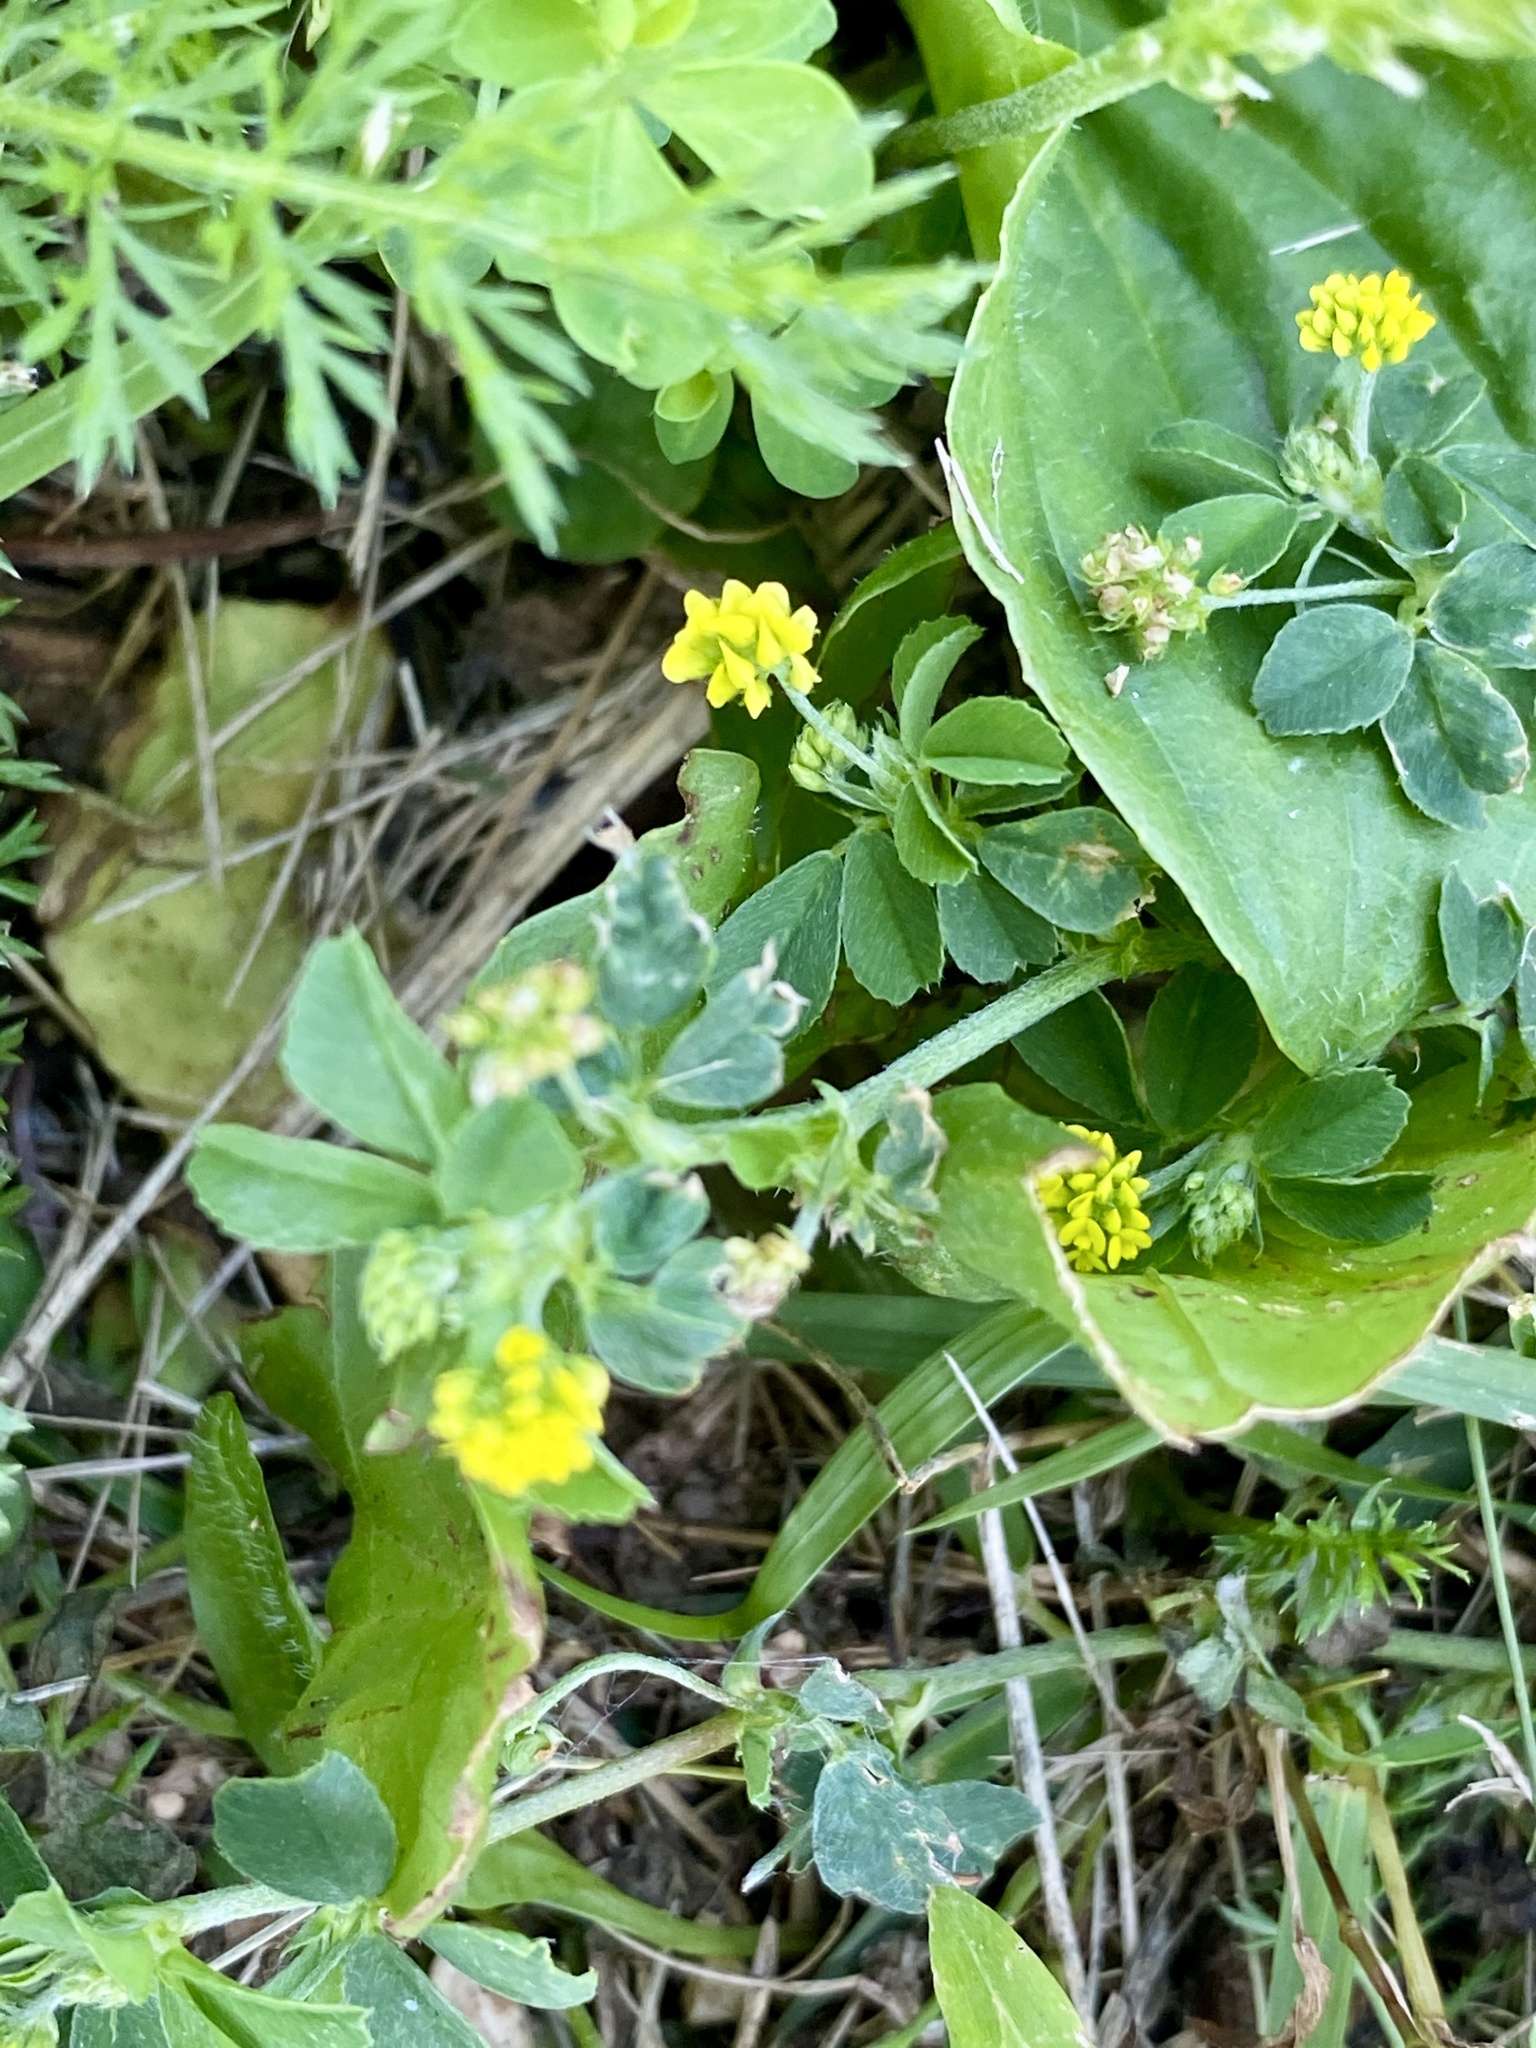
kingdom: Plantae
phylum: Tracheophyta
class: Magnoliopsida
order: Fabales
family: Fabaceae
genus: Medicago
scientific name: Medicago lupulina
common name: Black medick
